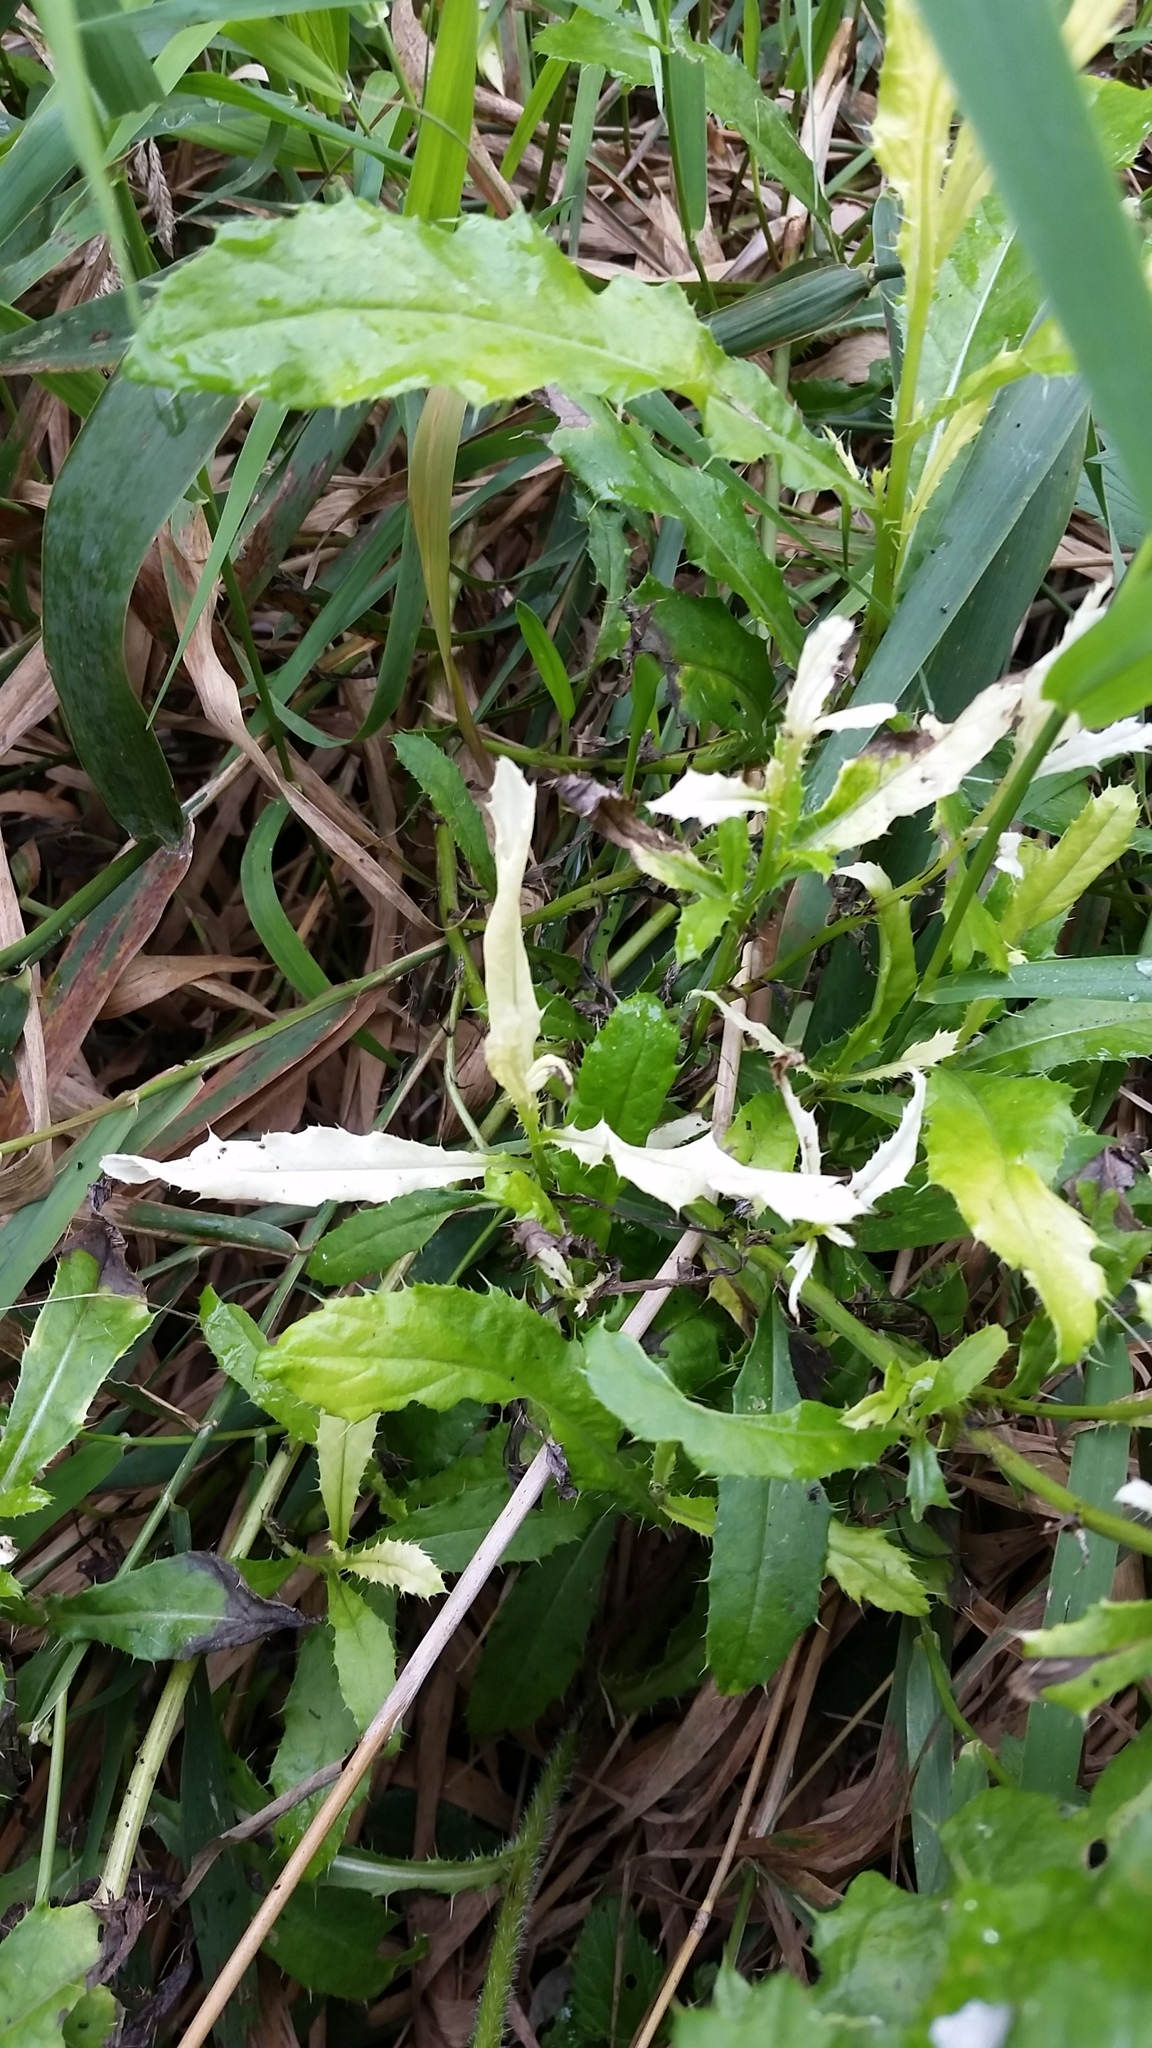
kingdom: Bacteria
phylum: Proteobacteria
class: Gammaproteobacteria
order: Pseudomonadales
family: Pseudomonadaceae
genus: Pseudomonas
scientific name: Pseudomonas syringae
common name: Bacterial speck
